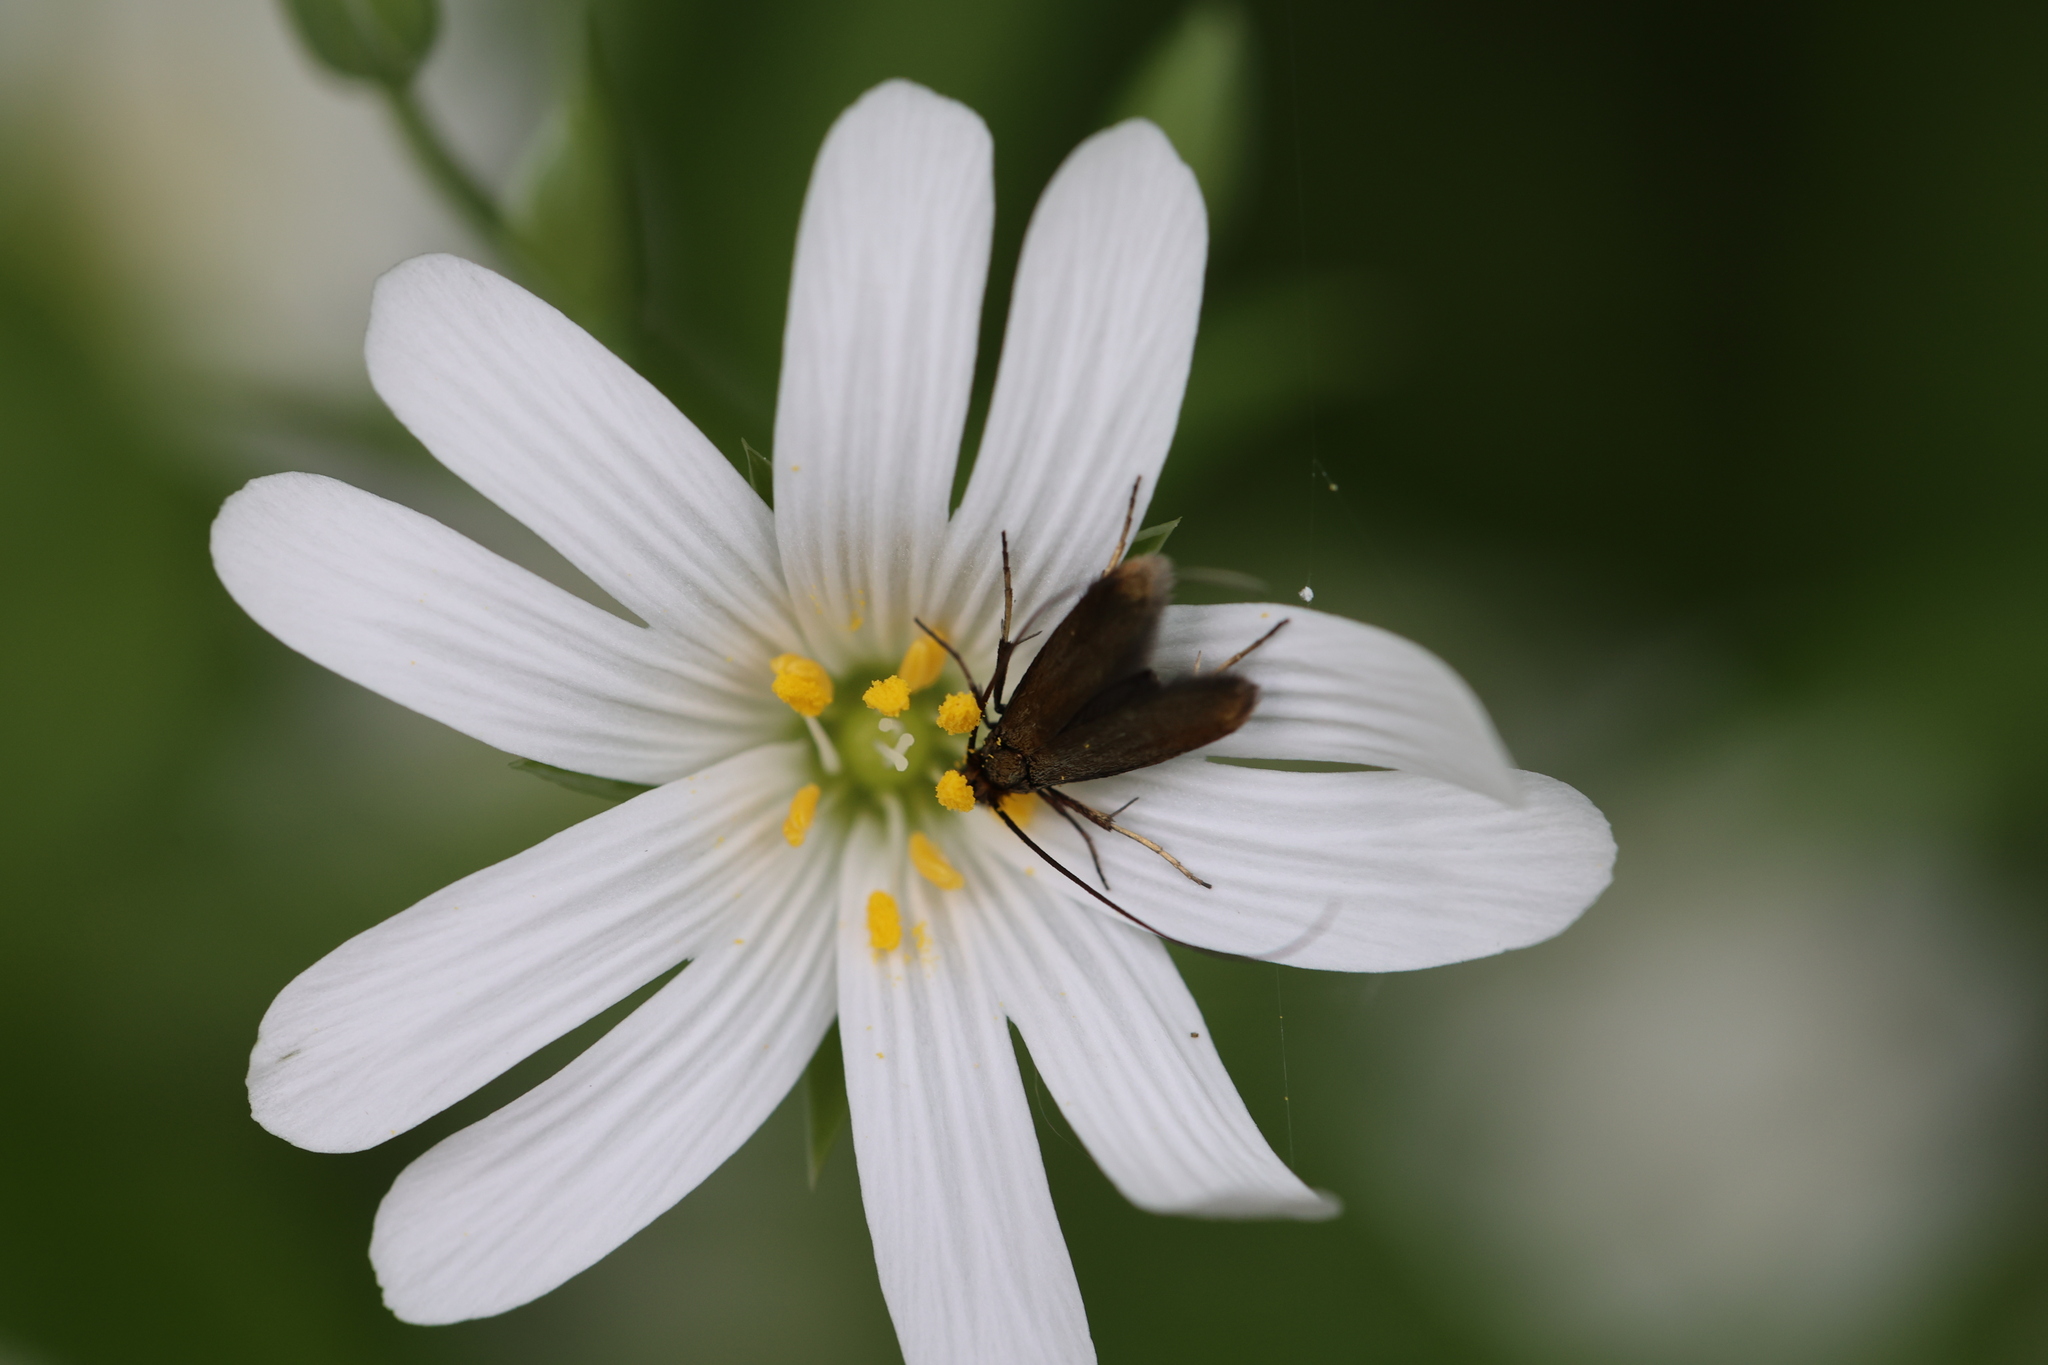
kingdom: Animalia
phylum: Arthropoda
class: Insecta
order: Lepidoptera
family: Adelidae
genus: Cauchas
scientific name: Cauchas rufimitrella
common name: Meadow long-horn
